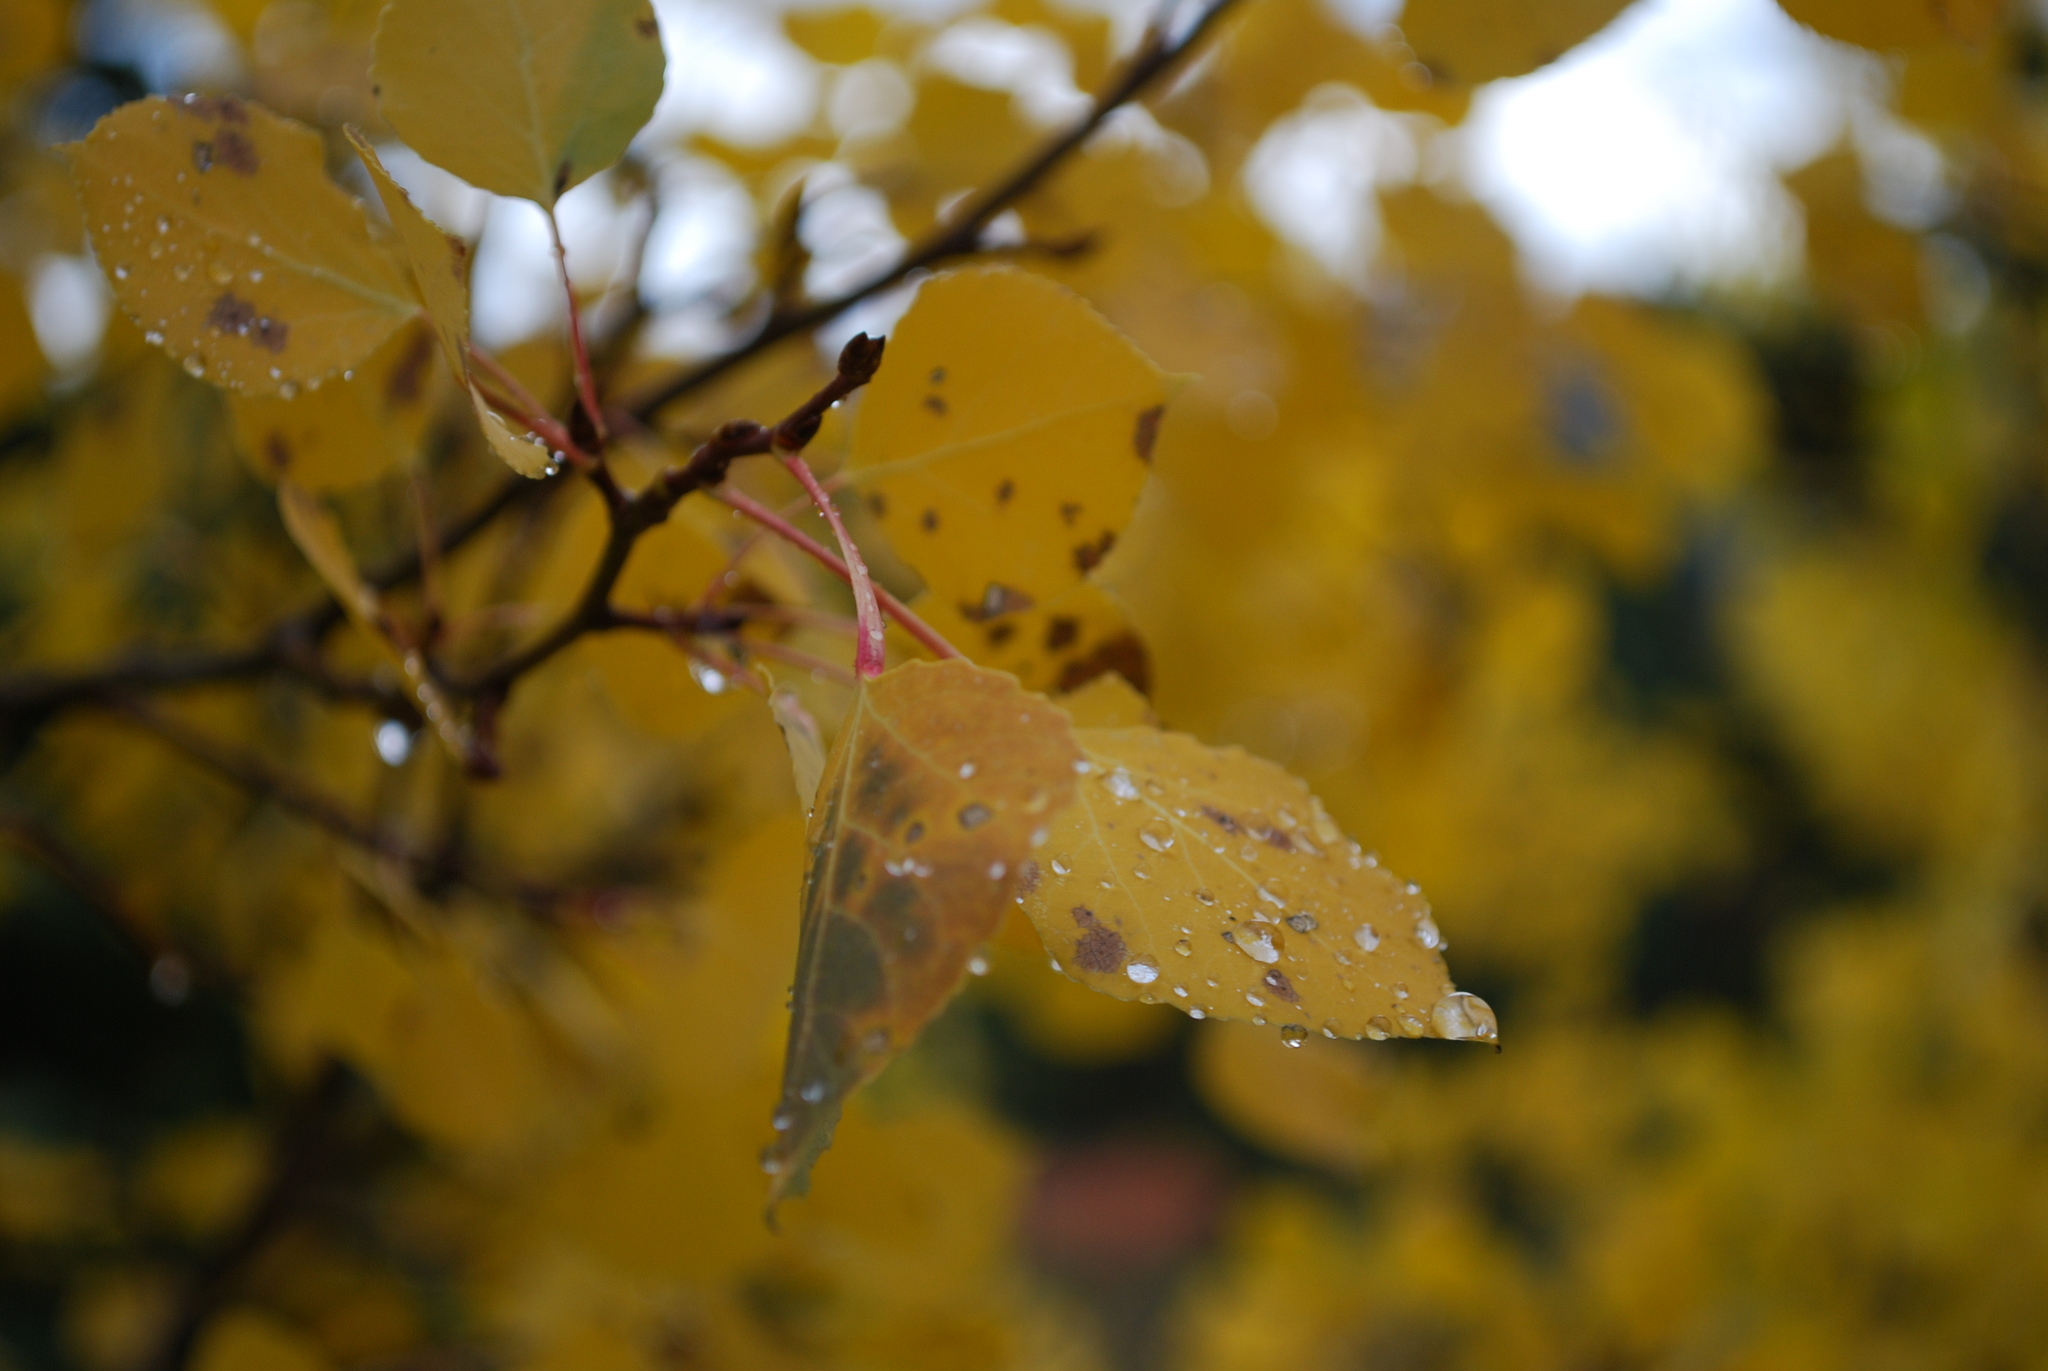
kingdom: Plantae
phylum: Tracheophyta
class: Magnoliopsida
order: Malpighiales
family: Salicaceae
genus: Populus
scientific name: Populus tremuloides
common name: Quaking aspen
